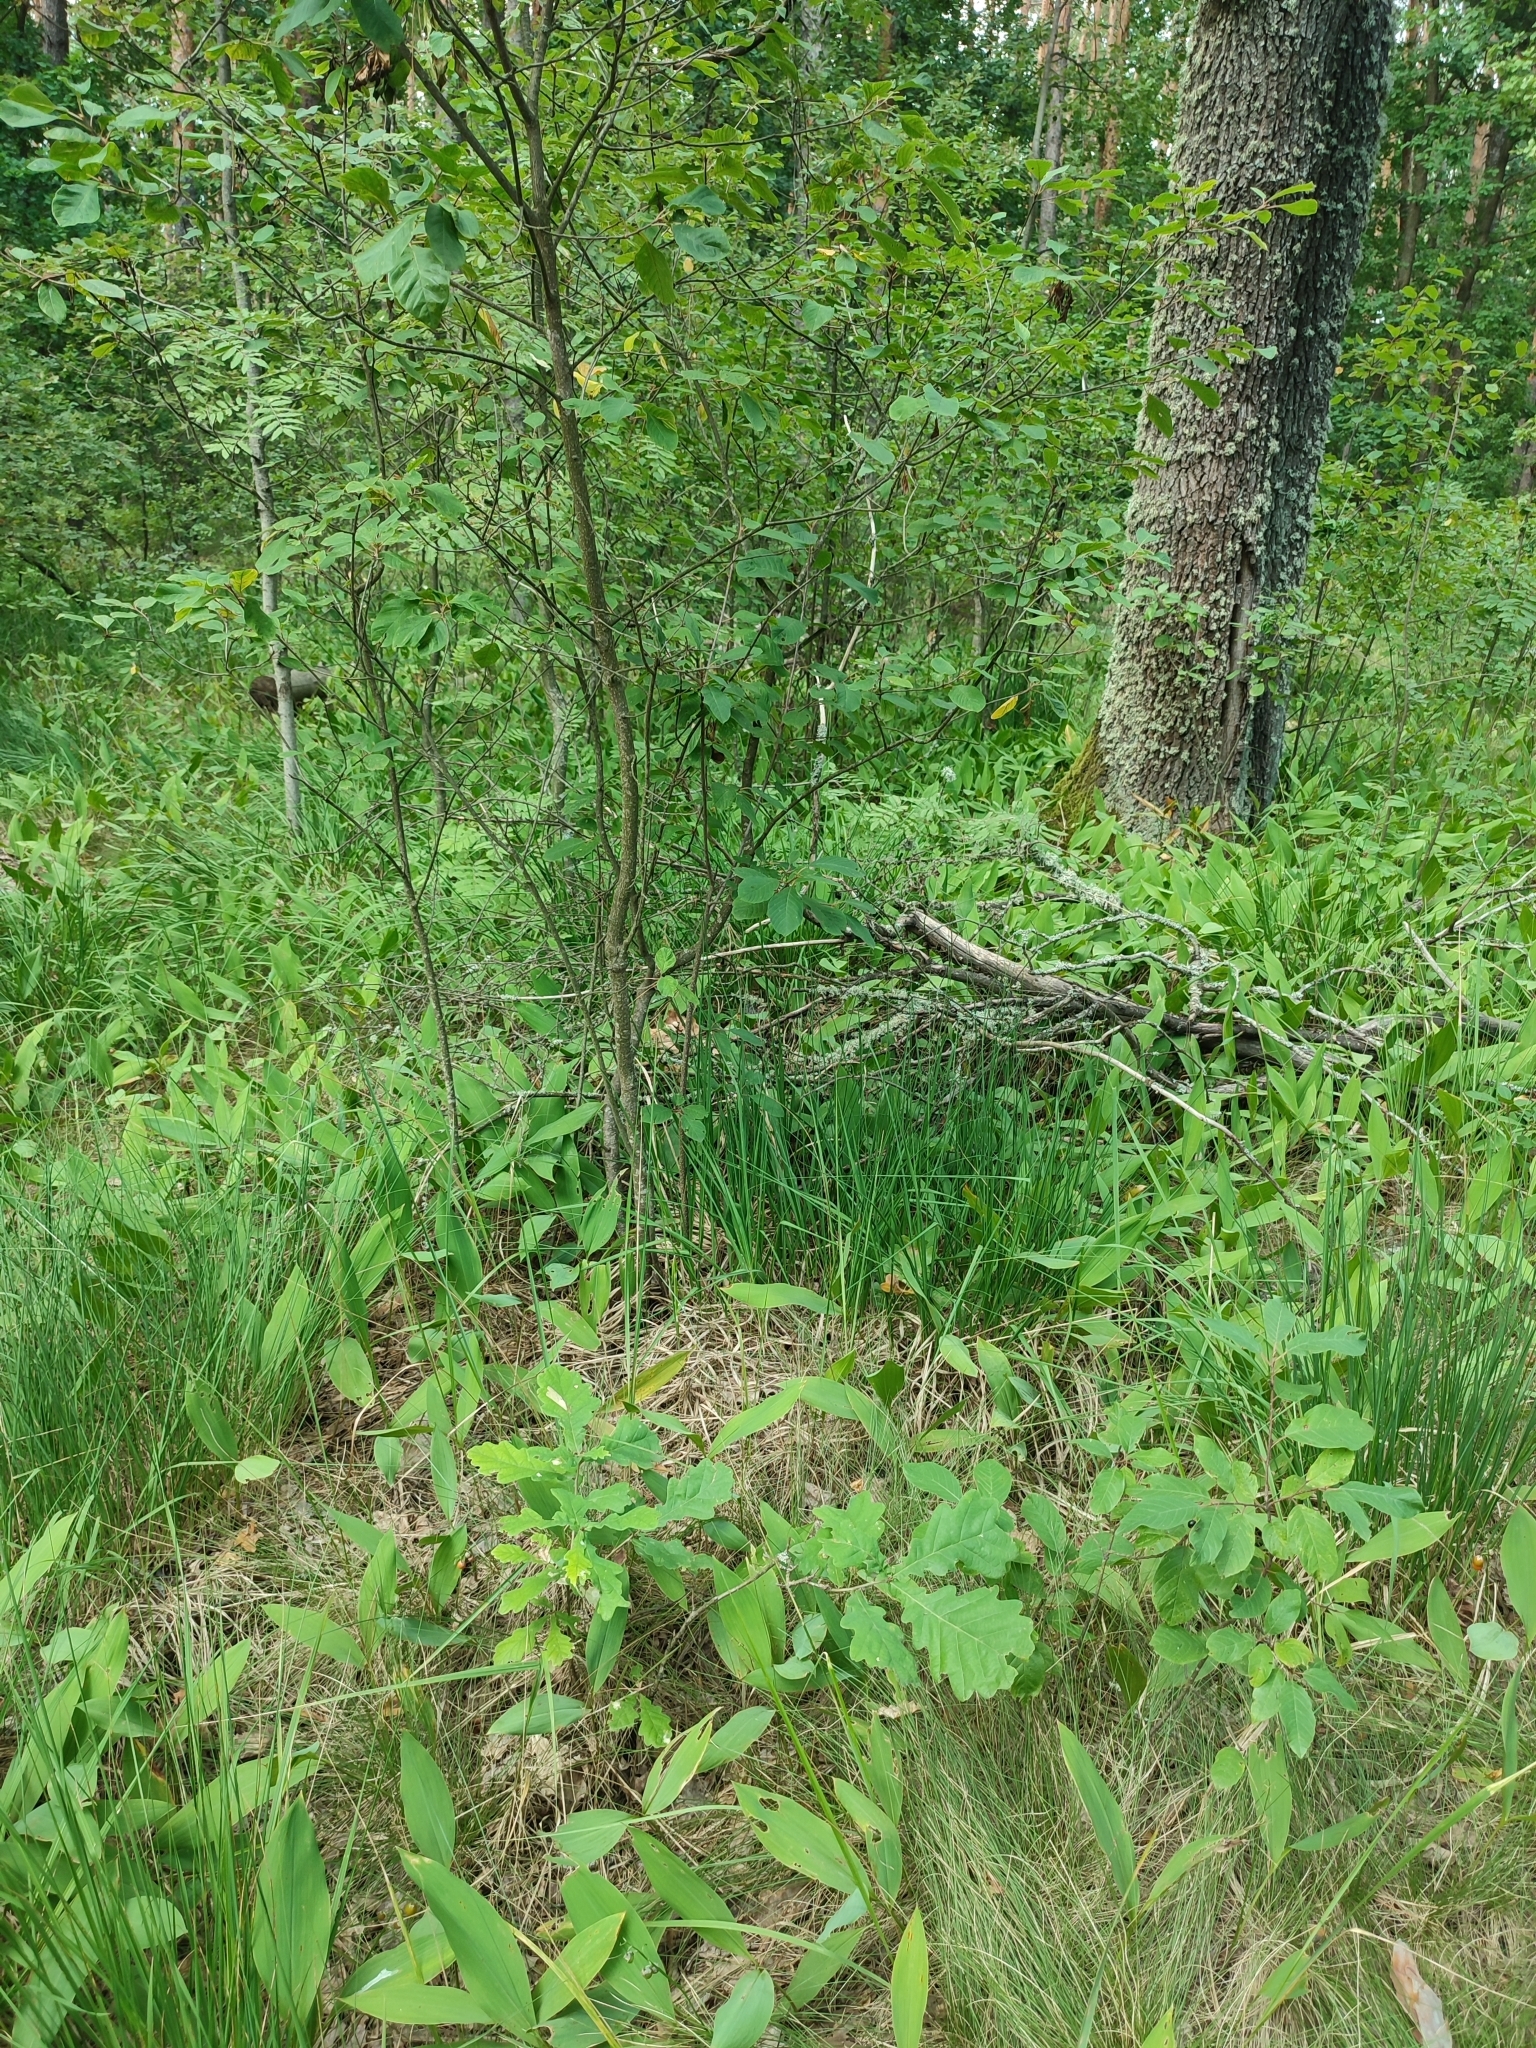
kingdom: Plantae
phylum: Tracheophyta
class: Magnoliopsida
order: Fagales
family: Fagaceae
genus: Quercus
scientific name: Quercus robur
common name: Pedunculate oak
